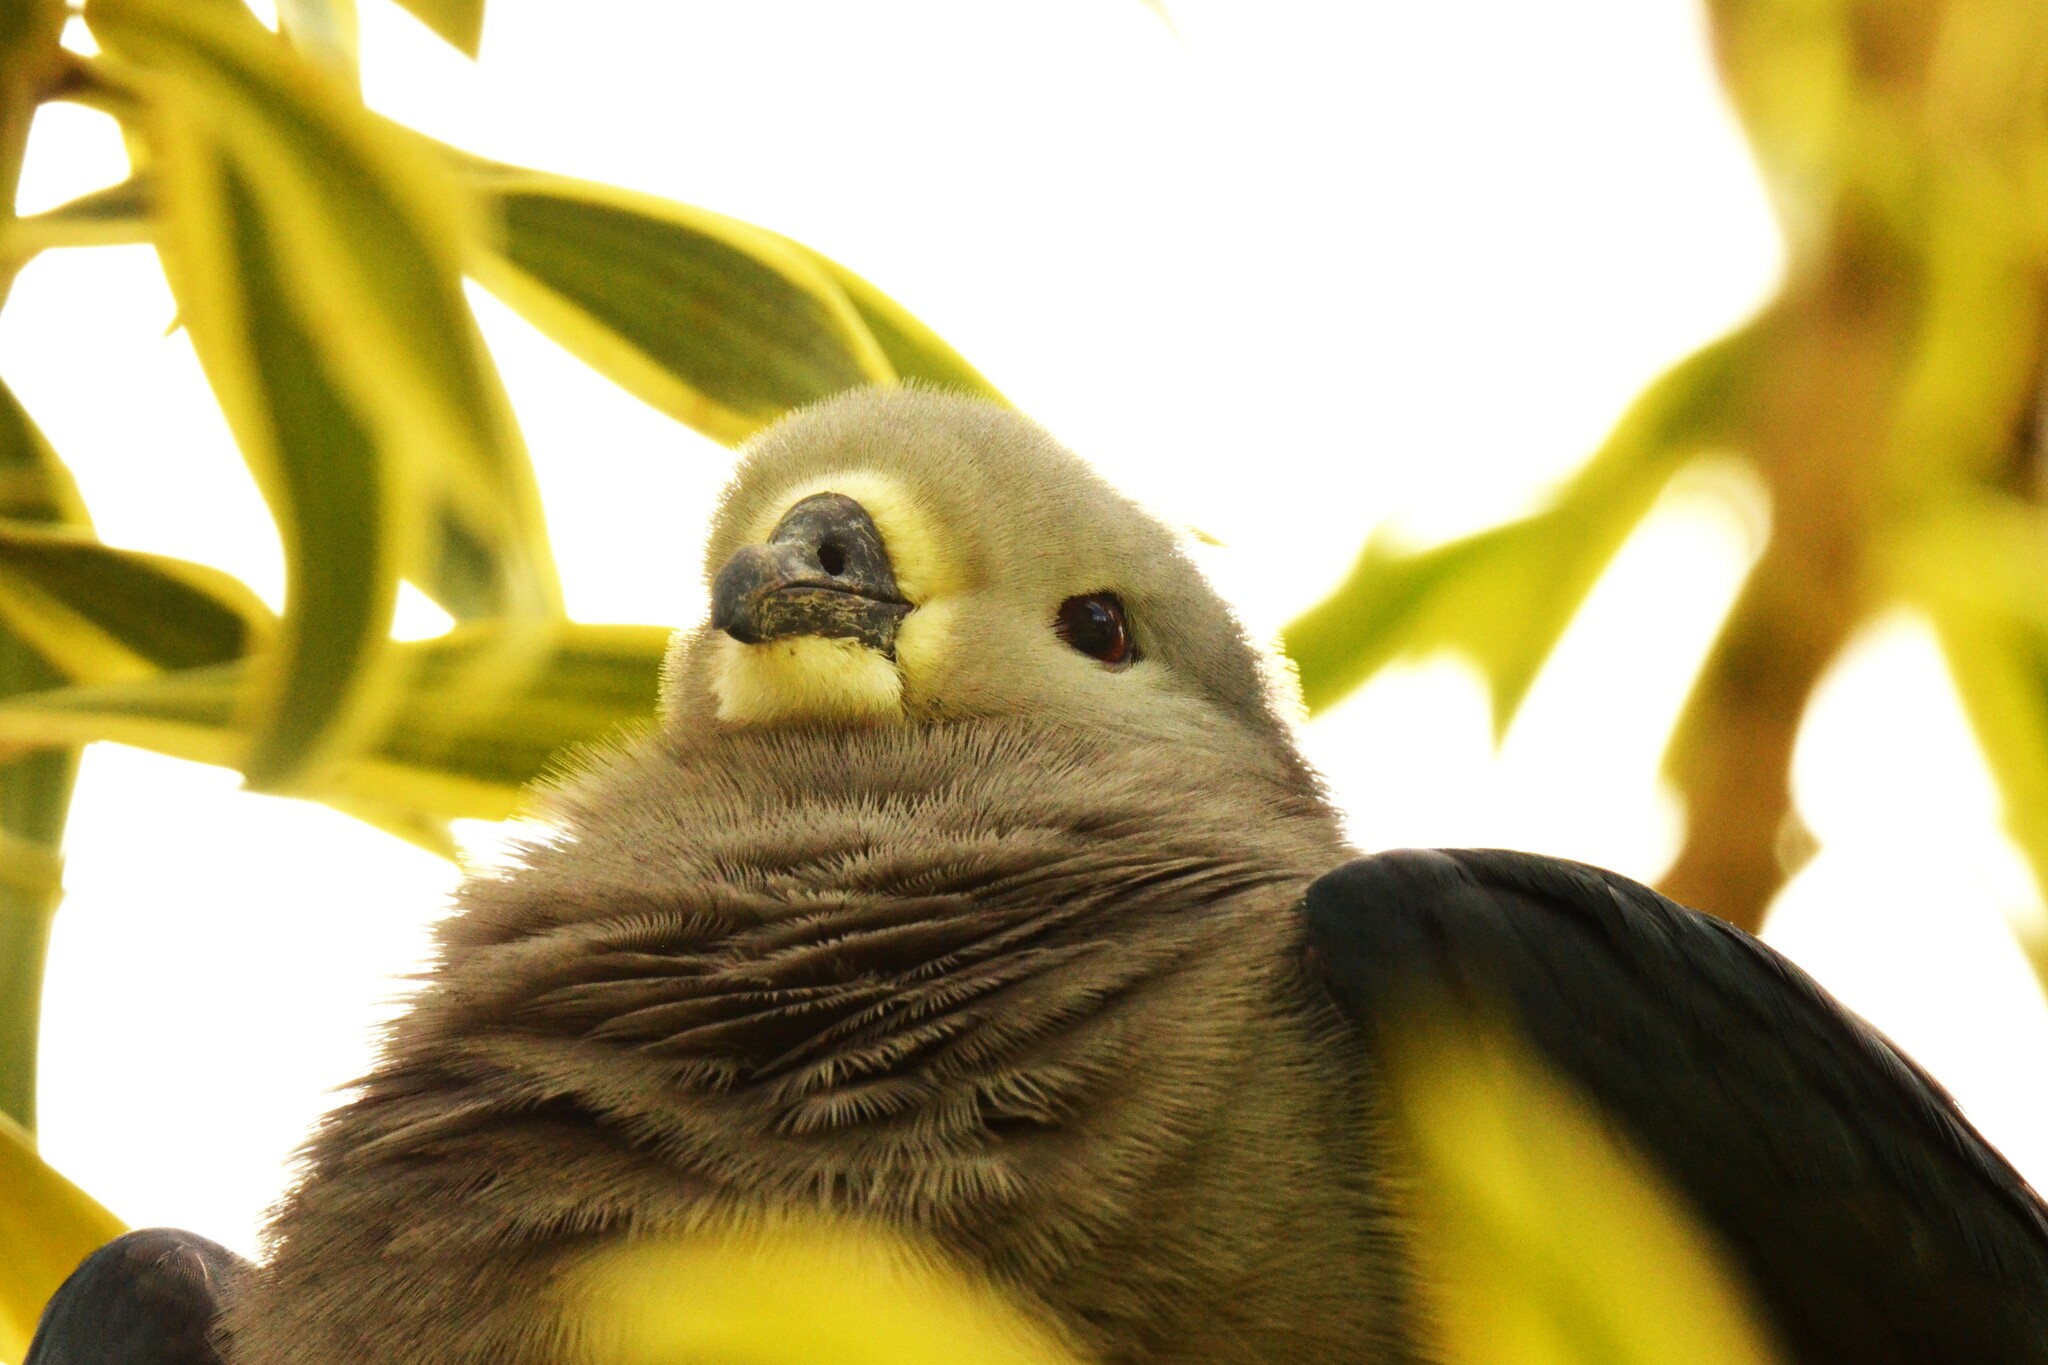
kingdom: Animalia
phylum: Chordata
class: Aves
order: Columbiformes
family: Columbidae
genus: Ducula
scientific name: Ducula pacifica
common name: Pacific imperial-pigeon
